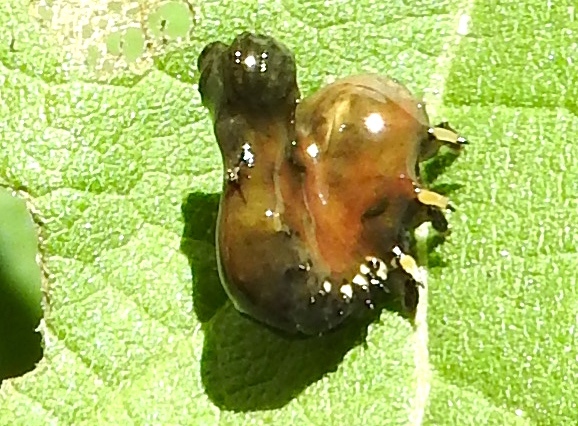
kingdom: Animalia
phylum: Arthropoda
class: Insecta
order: Coleoptera
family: Chrysomelidae
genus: Physonota
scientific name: Physonota
